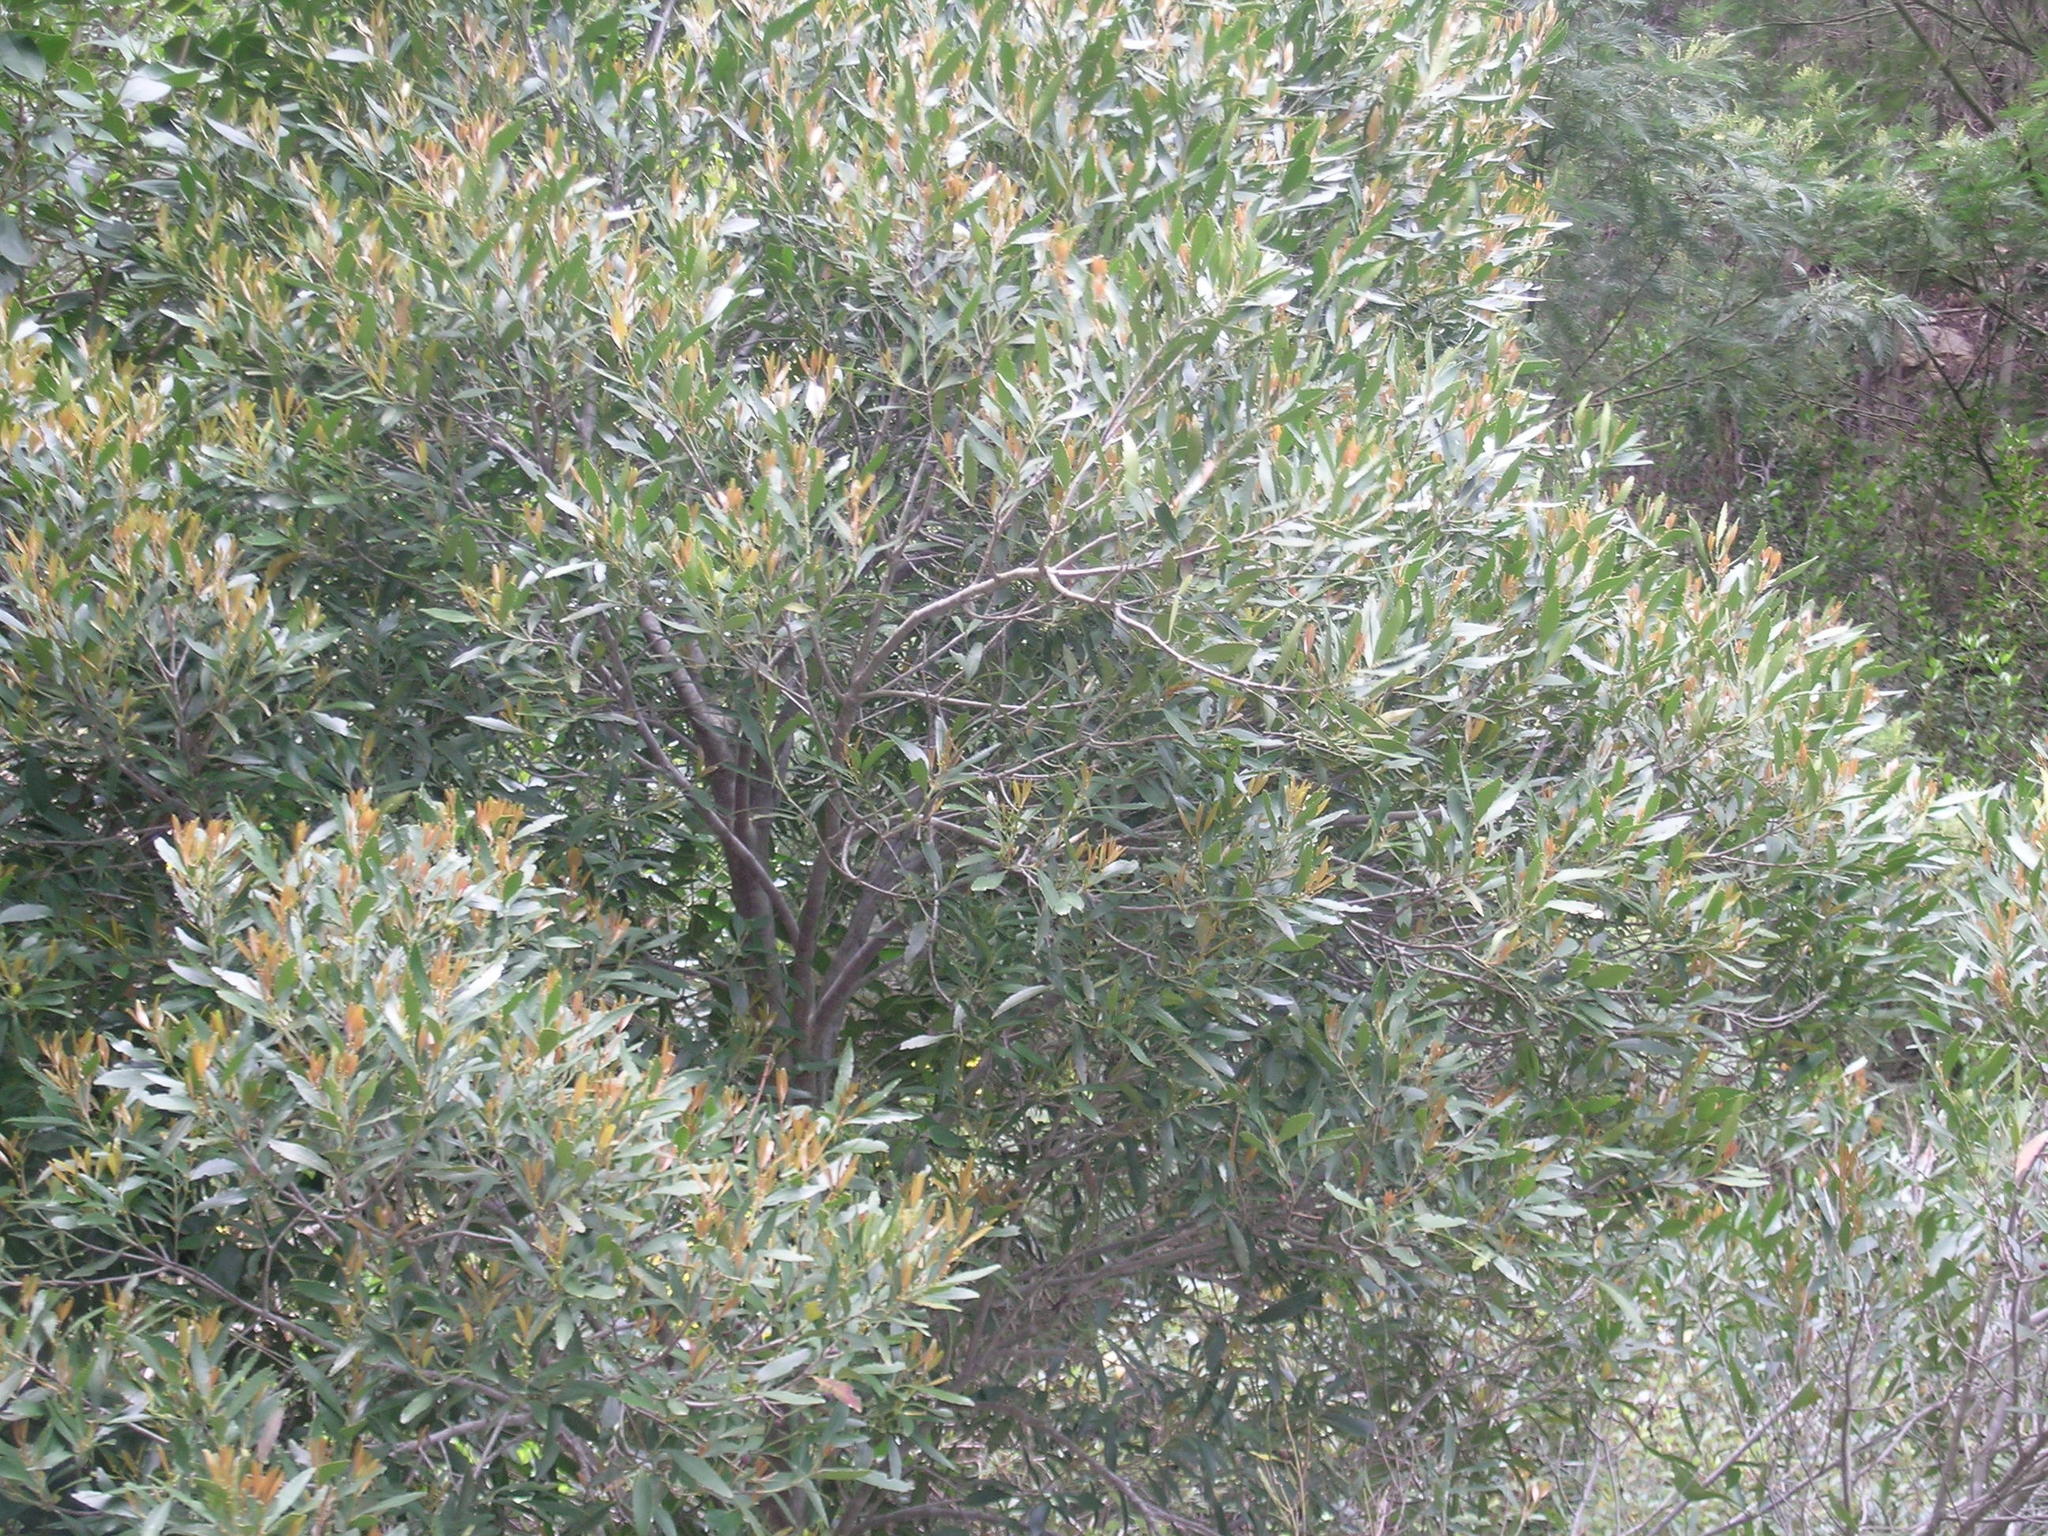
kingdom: Plantae
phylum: Tracheophyta
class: Magnoliopsida
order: Celastrales
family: Celastraceae
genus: Elaeodendron
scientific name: Elaeodendron schinoides
